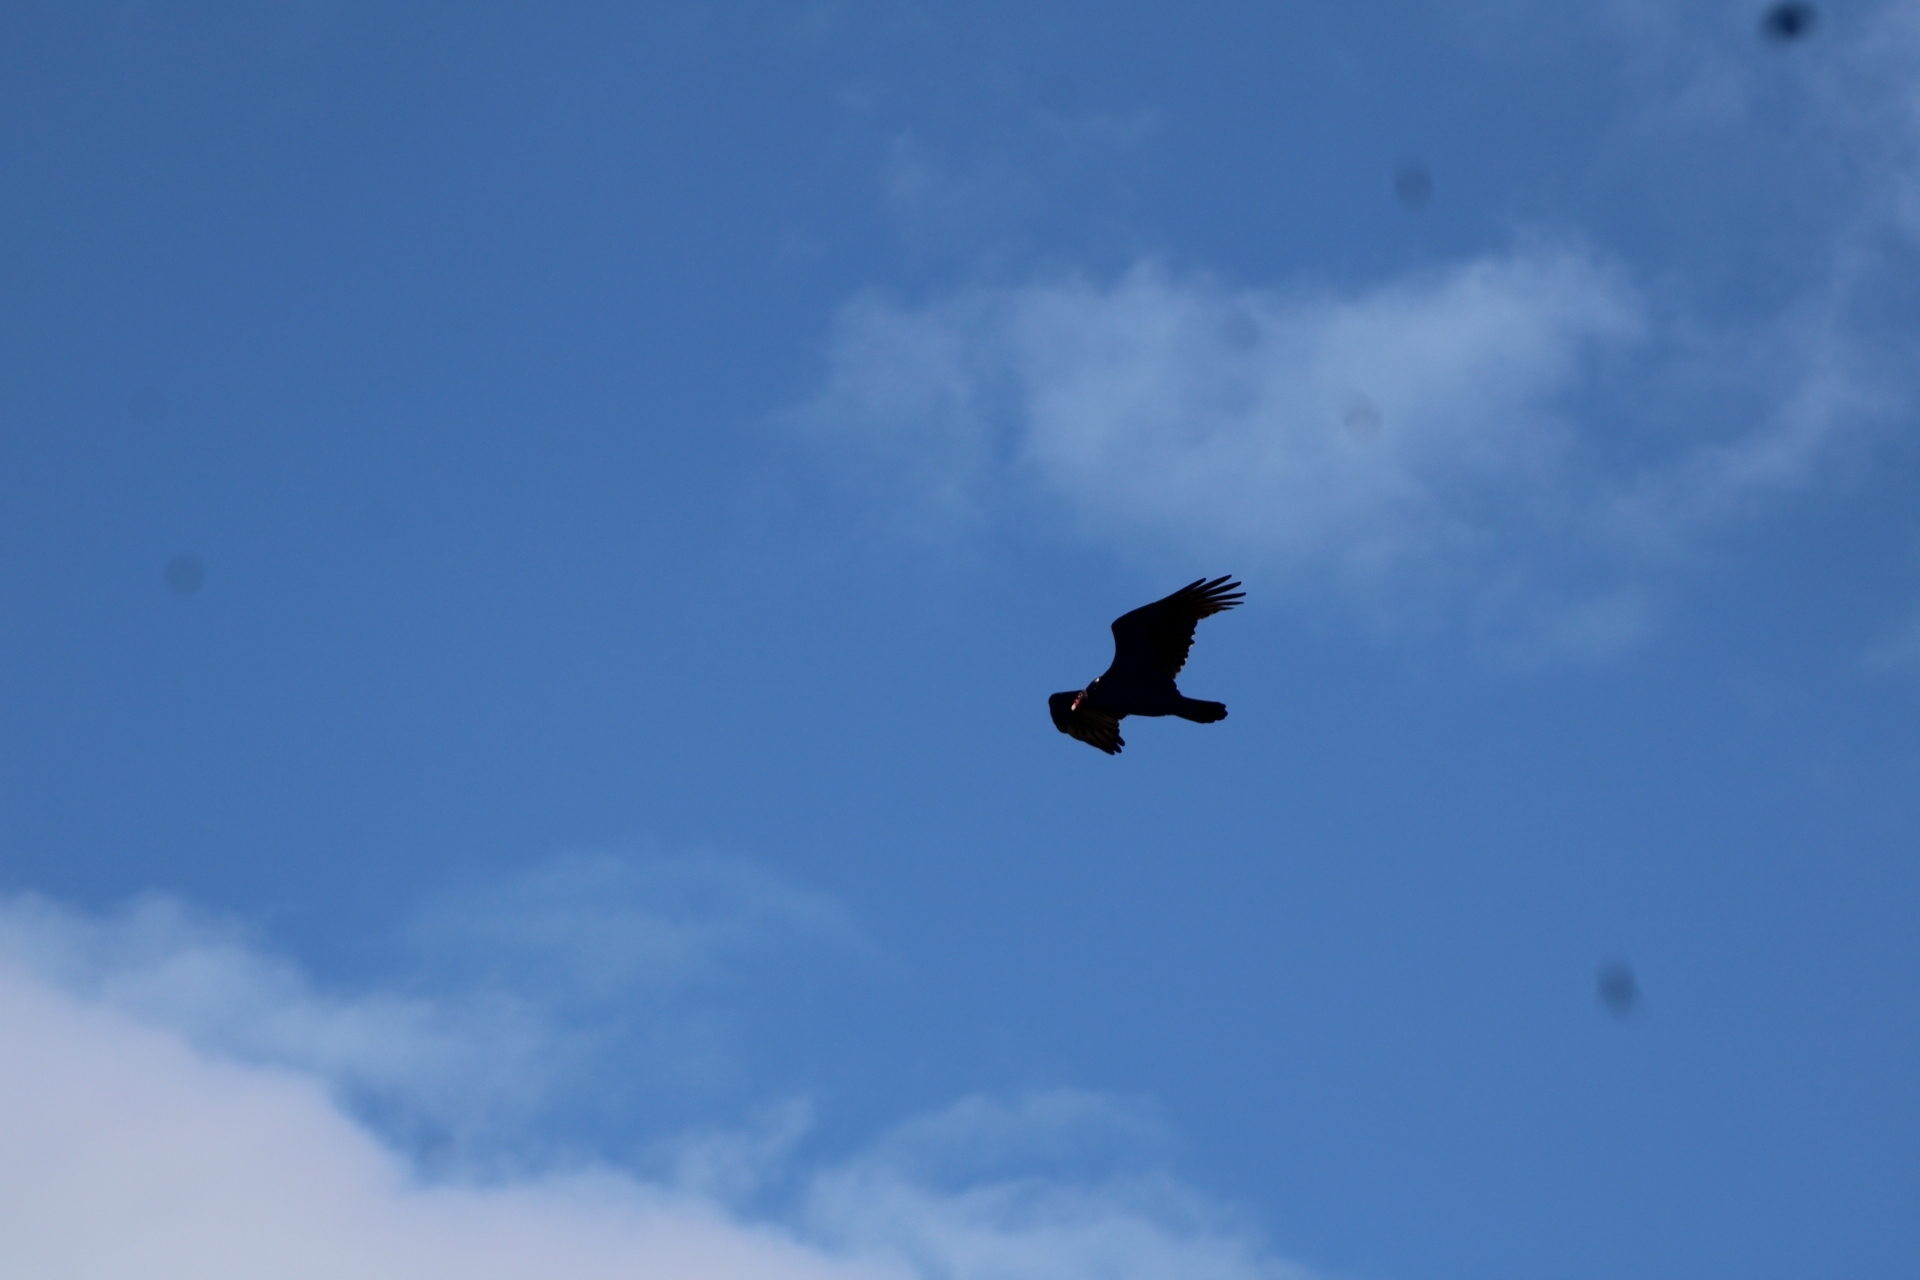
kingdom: Animalia
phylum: Chordata
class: Aves
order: Accipitriformes
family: Cathartidae
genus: Cathartes
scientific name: Cathartes aura
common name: Turkey vulture
